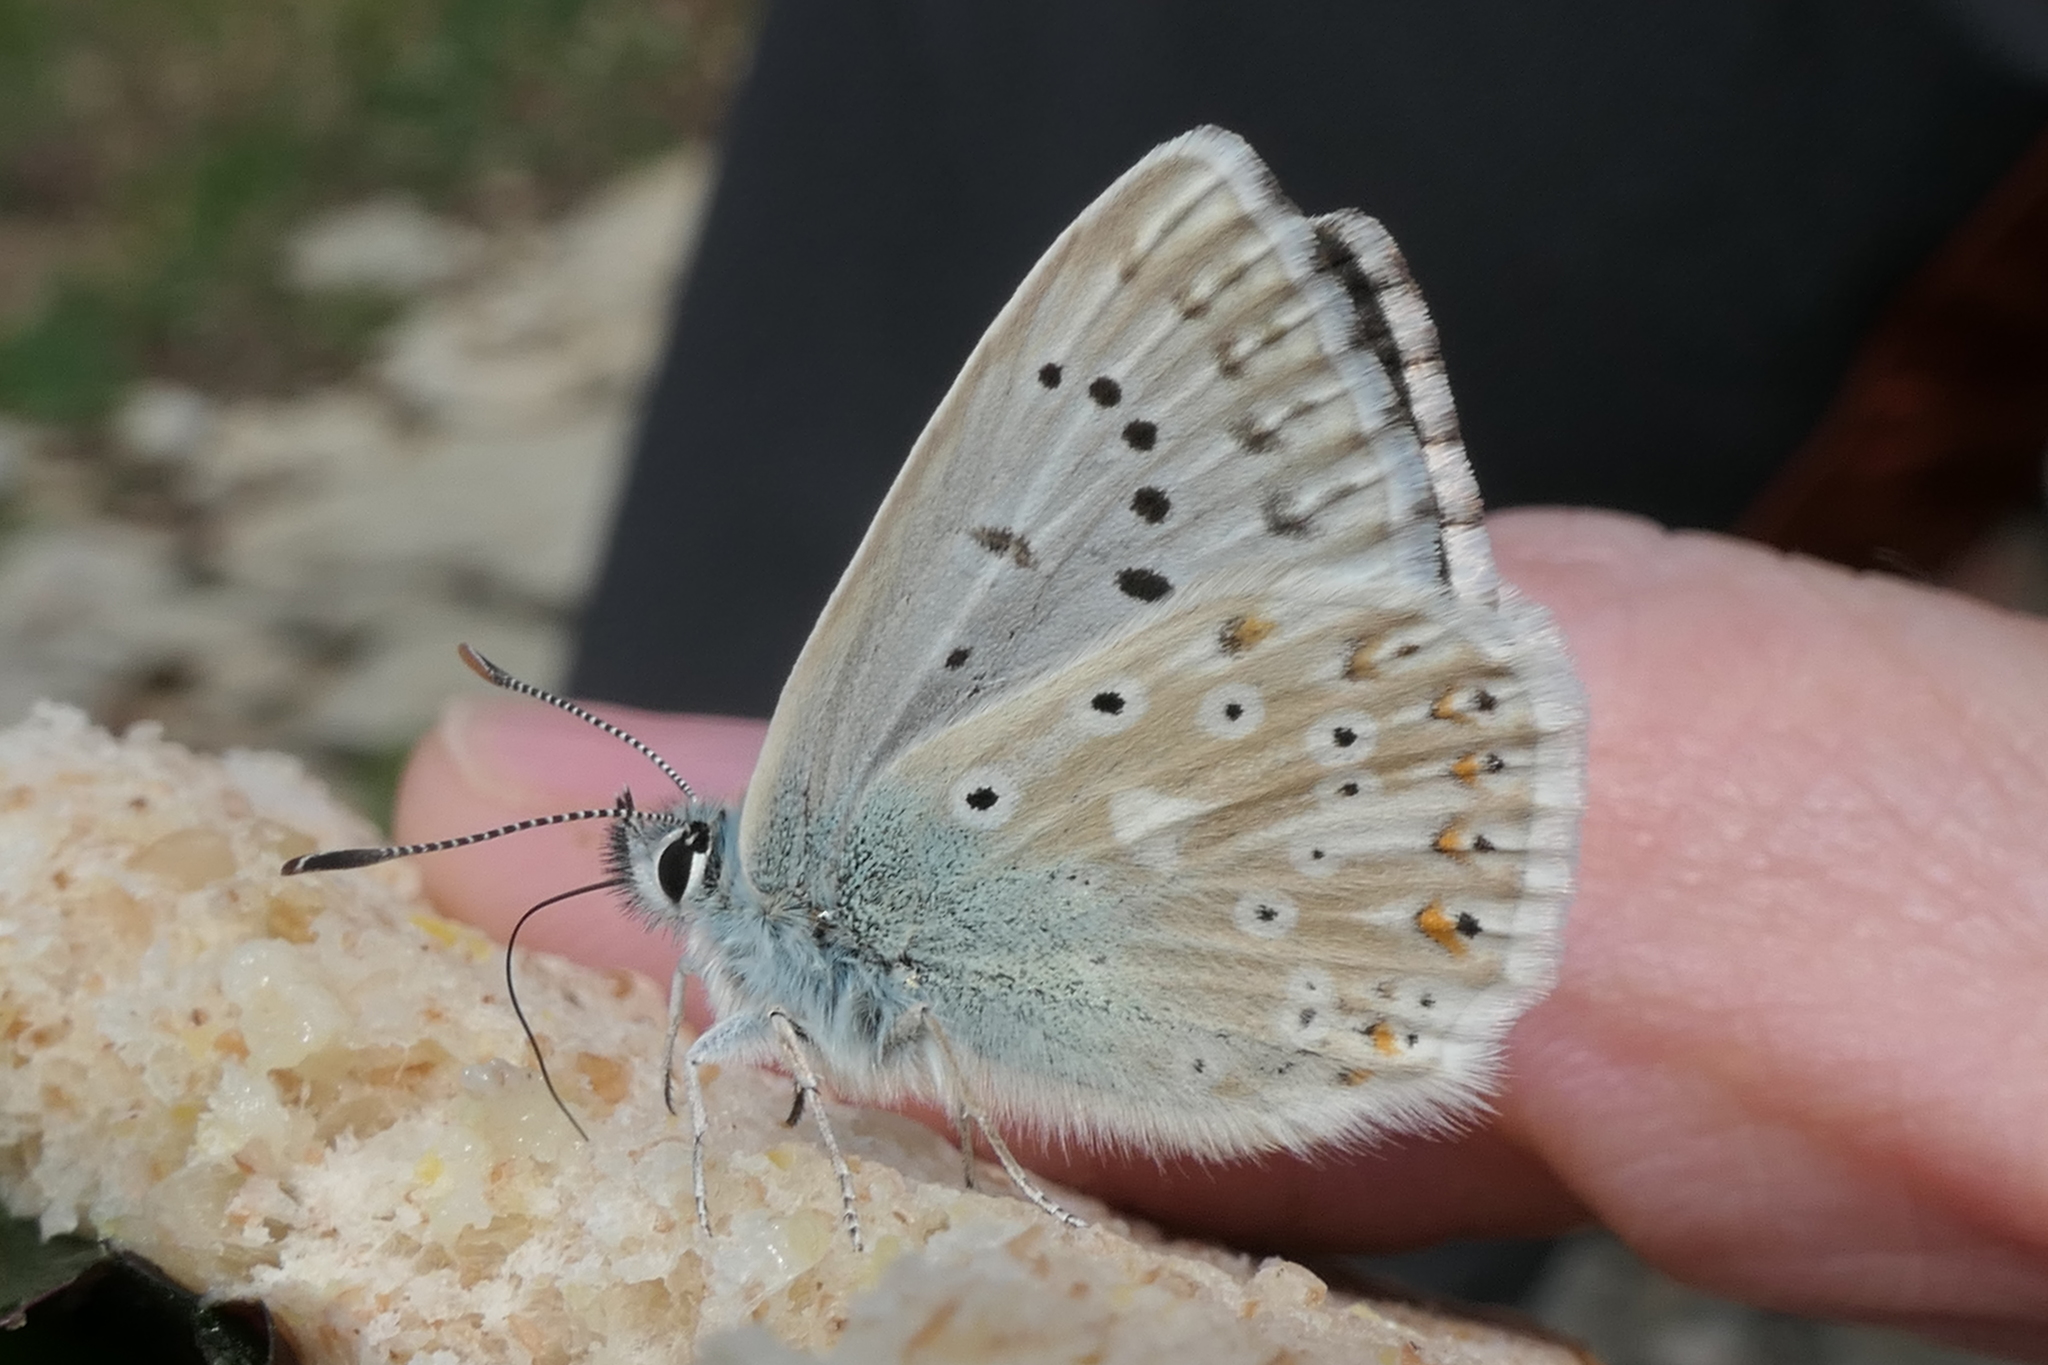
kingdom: Animalia
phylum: Arthropoda
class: Insecta
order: Lepidoptera
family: Lycaenidae
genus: Lysandra
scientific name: Lysandra coridon
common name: Chalkhill blue
